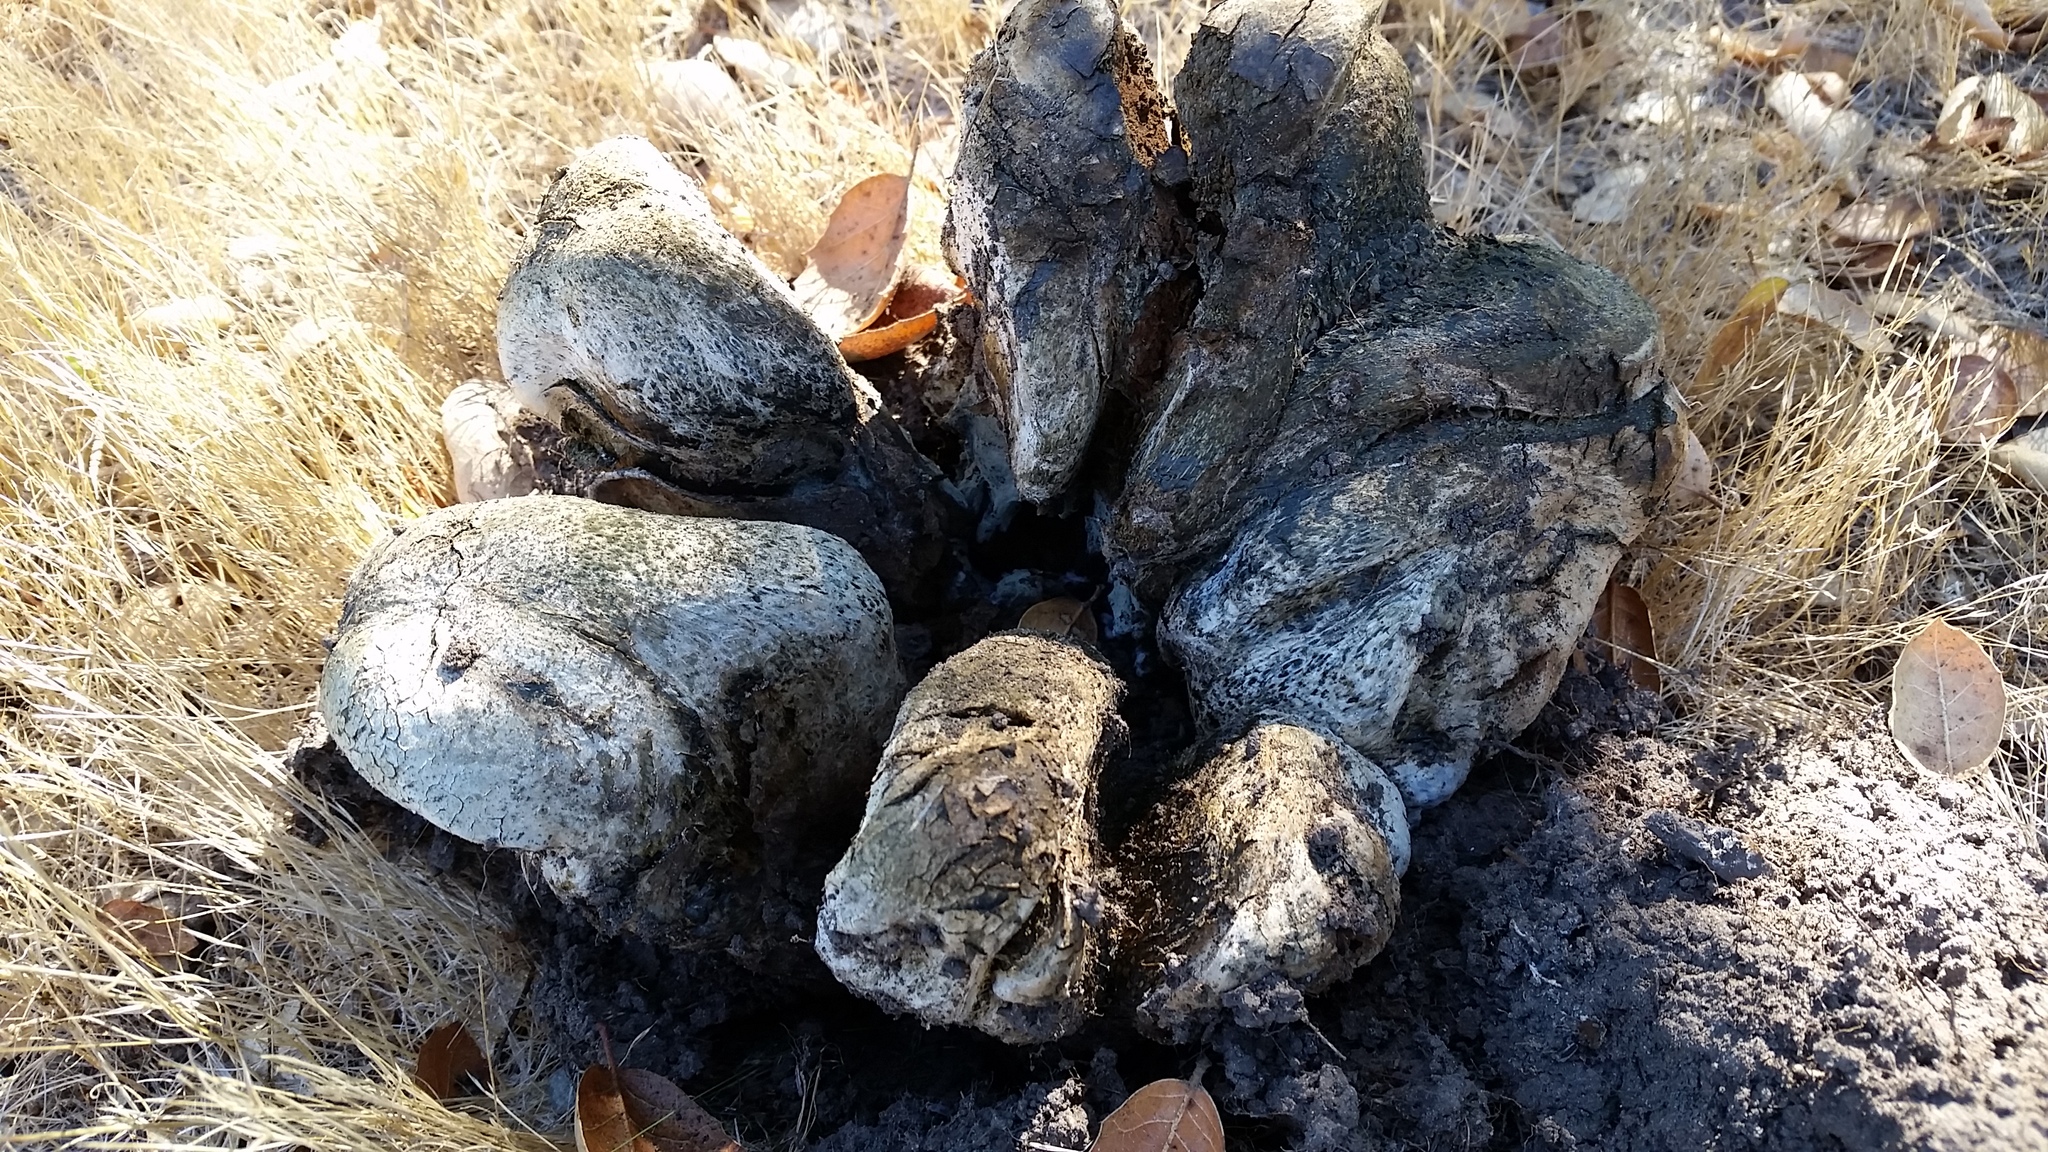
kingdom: Fungi
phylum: Basidiomycota
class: Agaricomycetes
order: Boletales
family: Sclerodermataceae
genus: Pisolithus
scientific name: Pisolithus arhizus
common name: Dyeball
